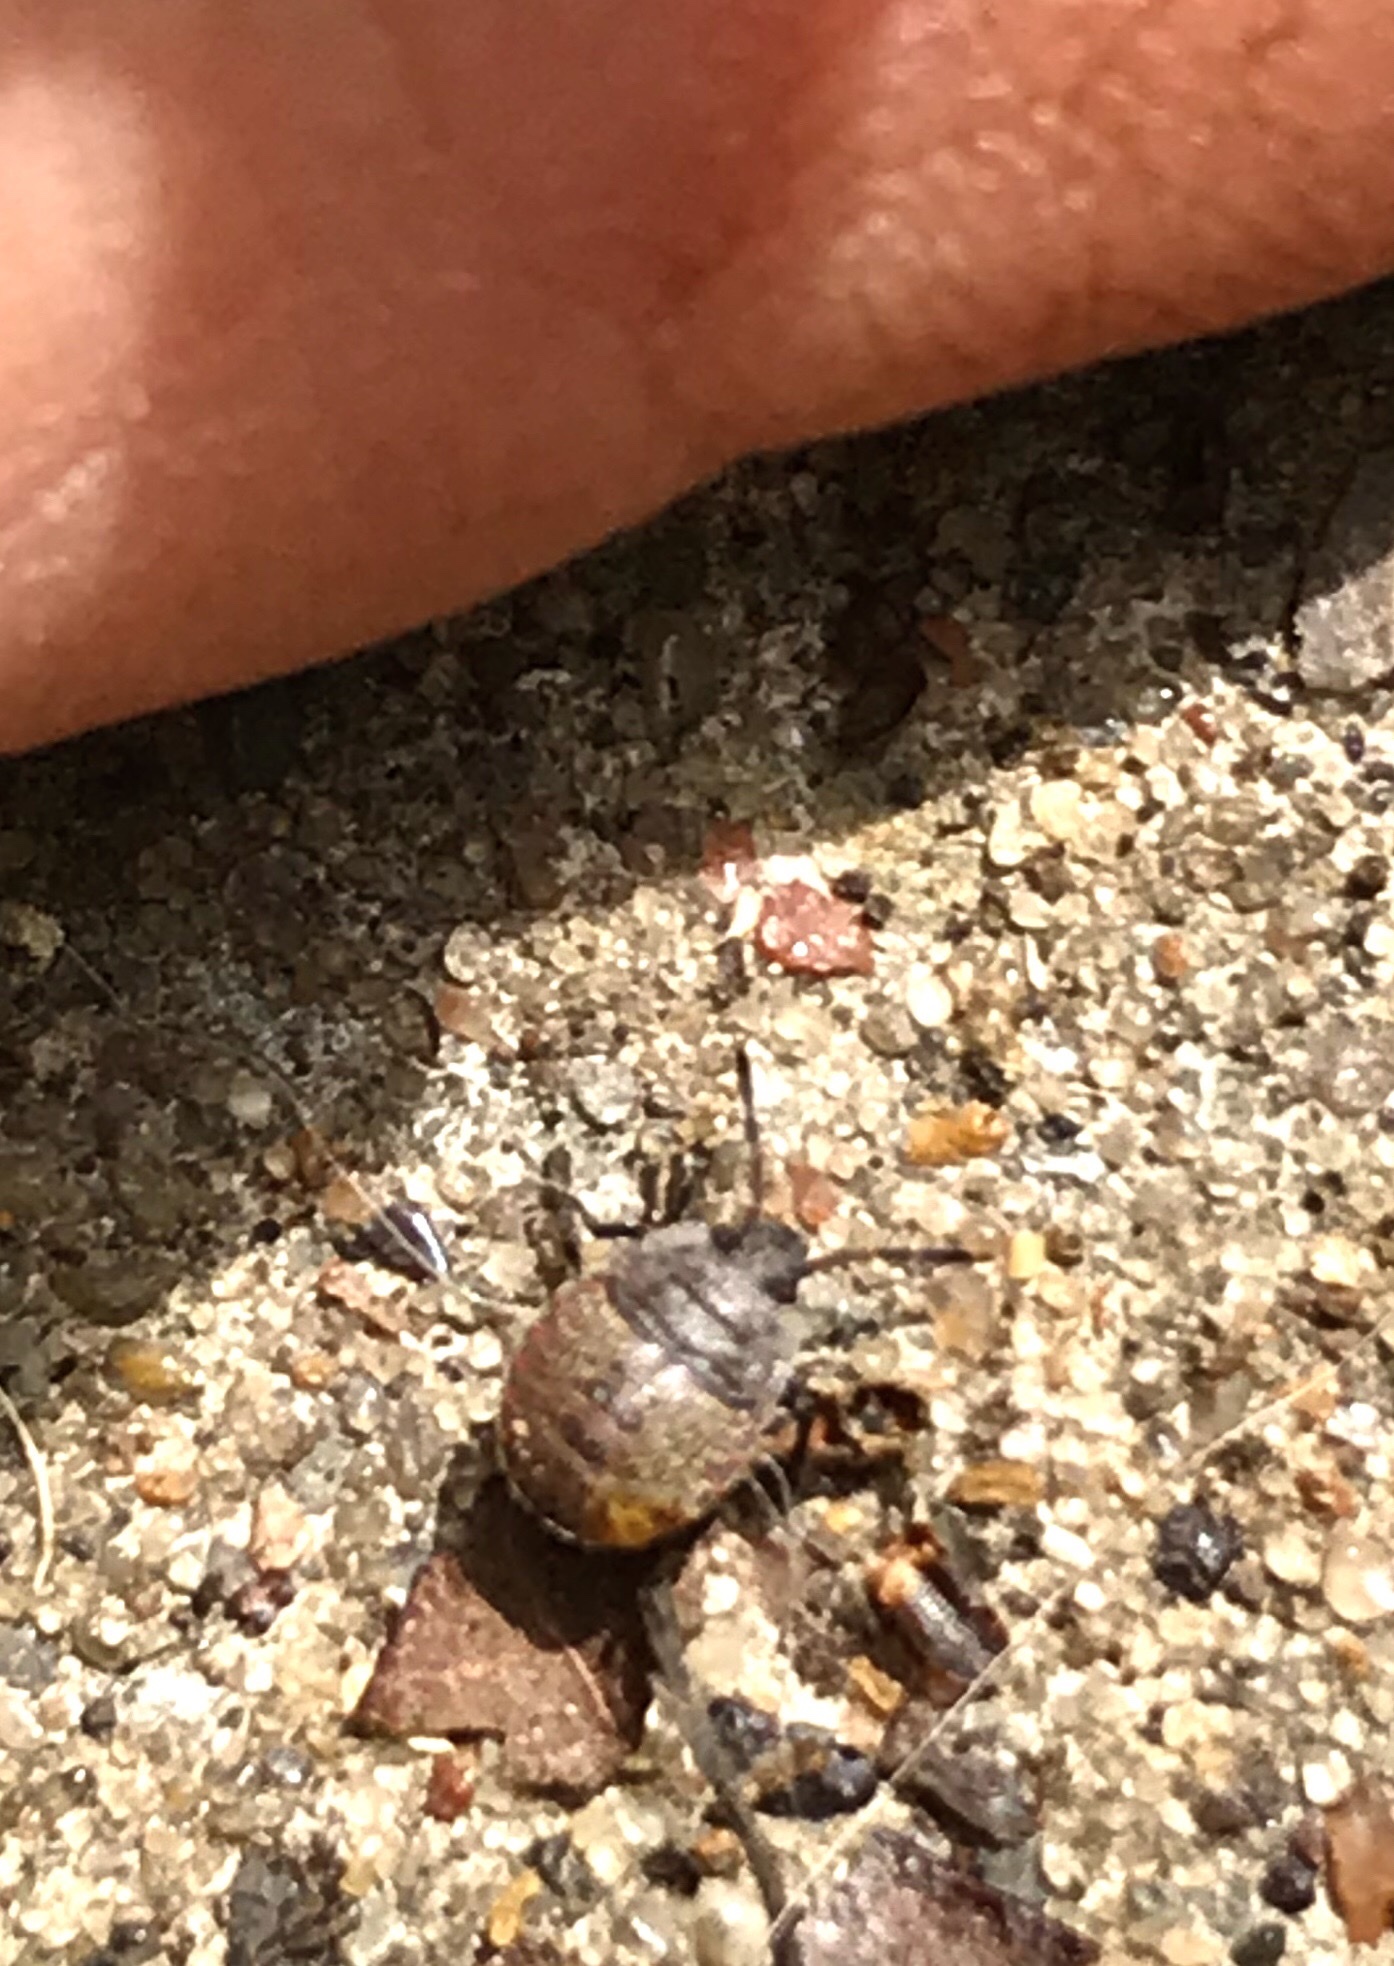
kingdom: Animalia
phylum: Arthropoda
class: Insecta
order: Hemiptera
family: Pentatomidae
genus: Menecles
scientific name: Menecles insertus
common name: Elf shoe stink bug
